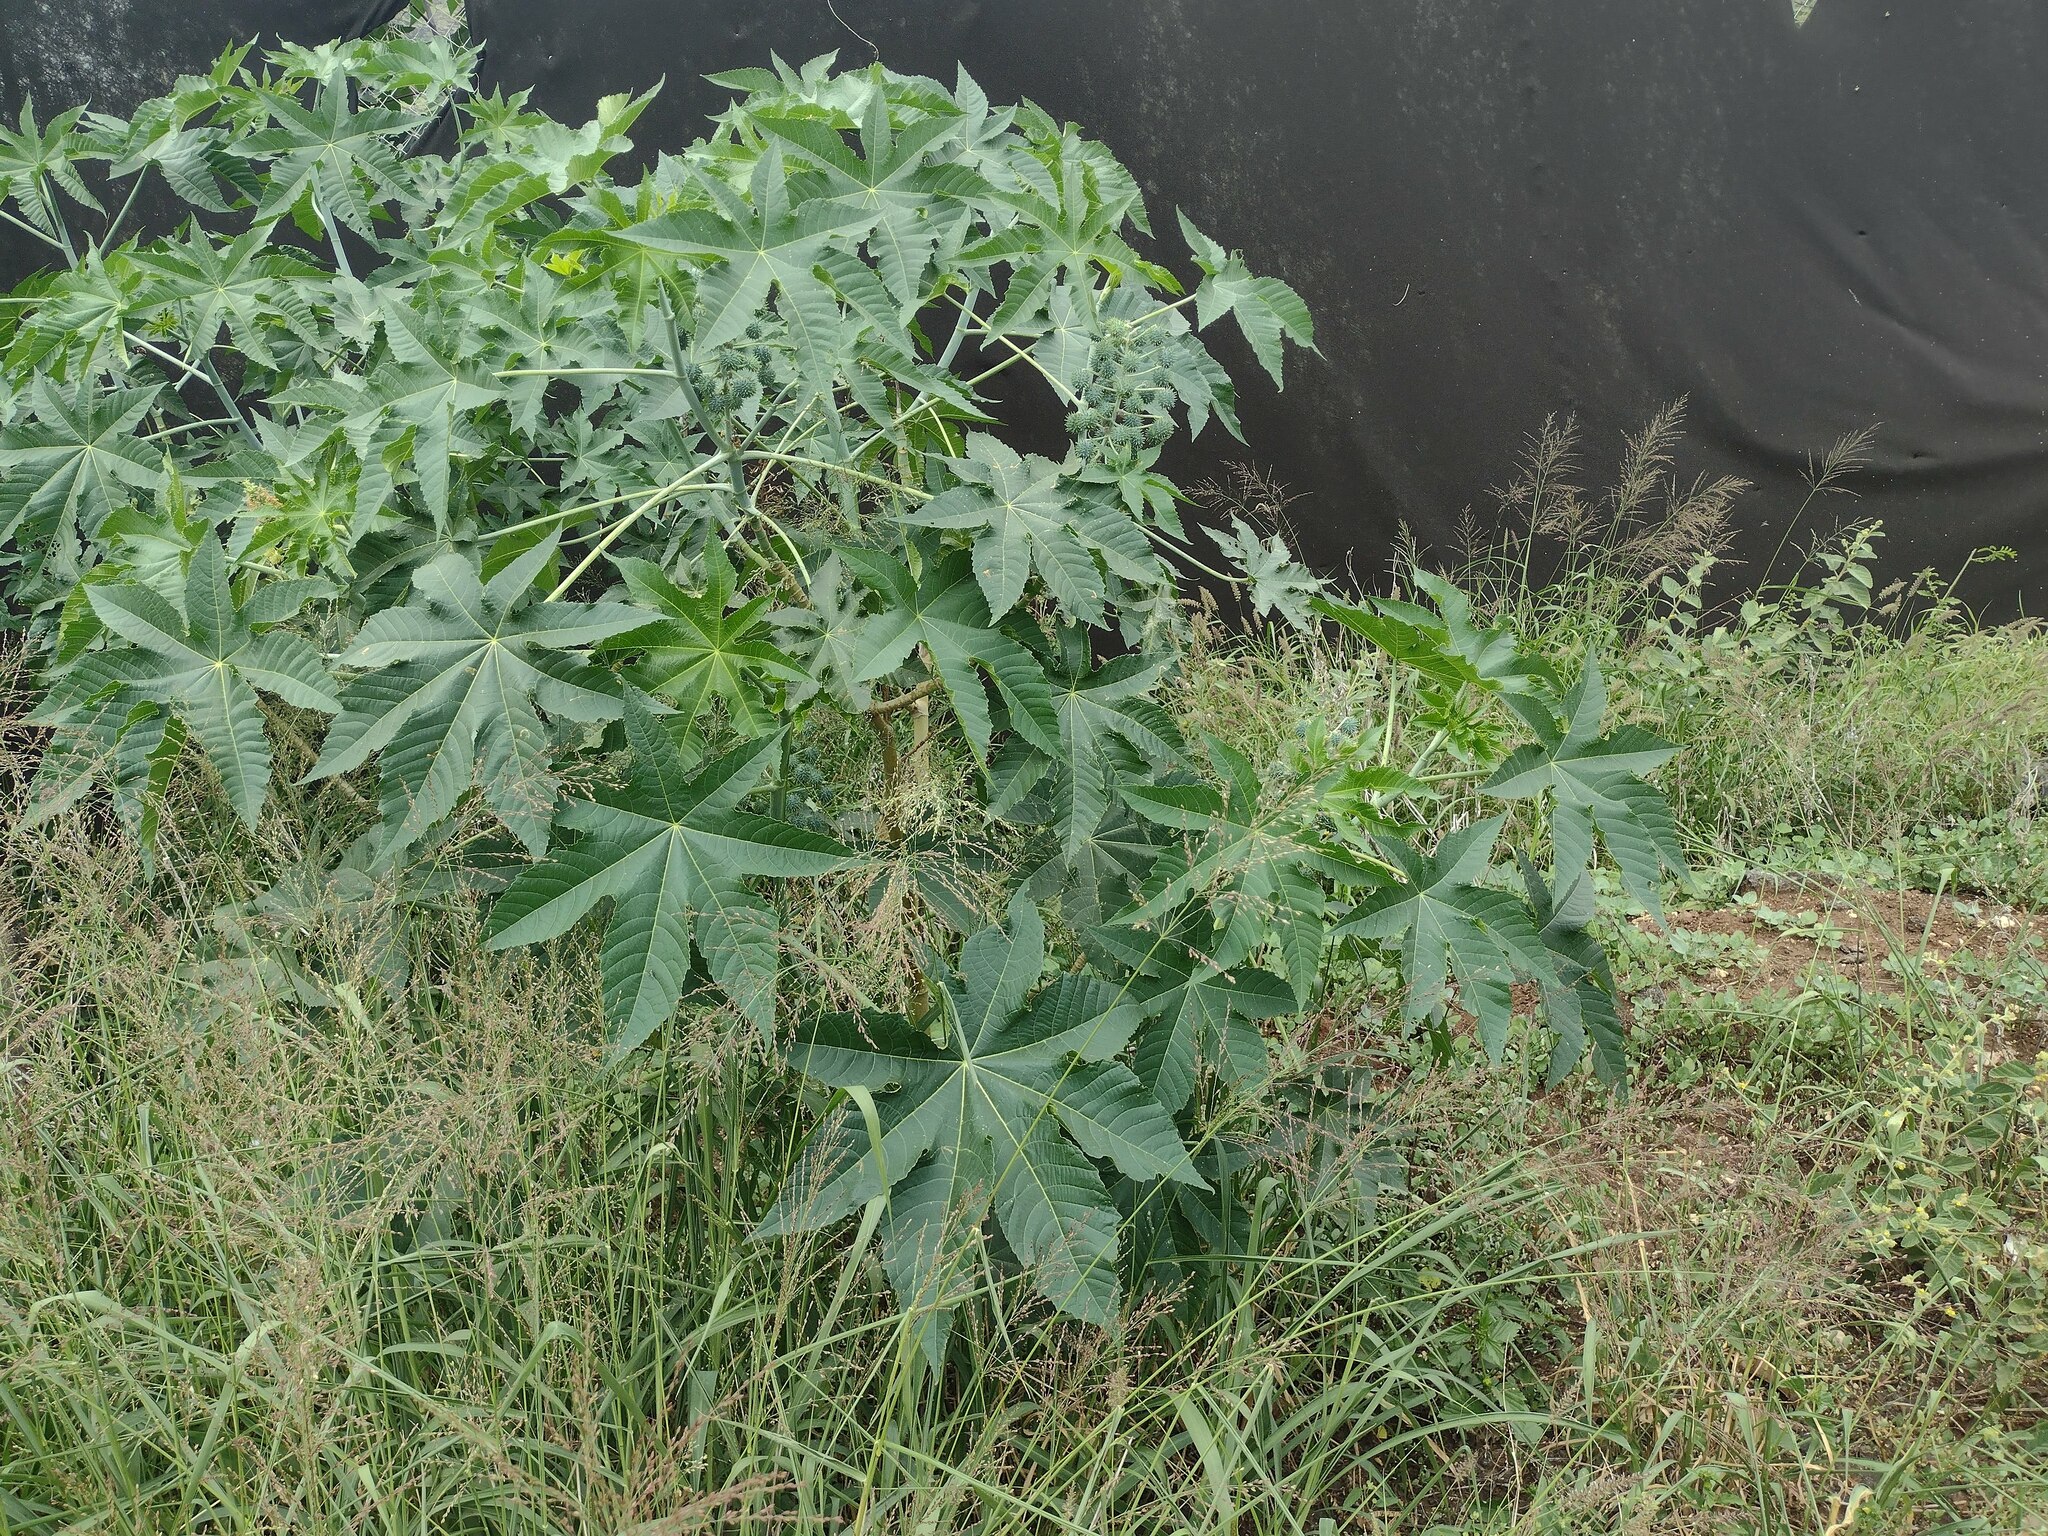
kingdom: Plantae
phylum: Tracheophyta
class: Magnoliopsida
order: Malpighiales
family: Euphorbiaceae
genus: Ricinus
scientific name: Ricinus communis
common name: Castor-oil-plant
